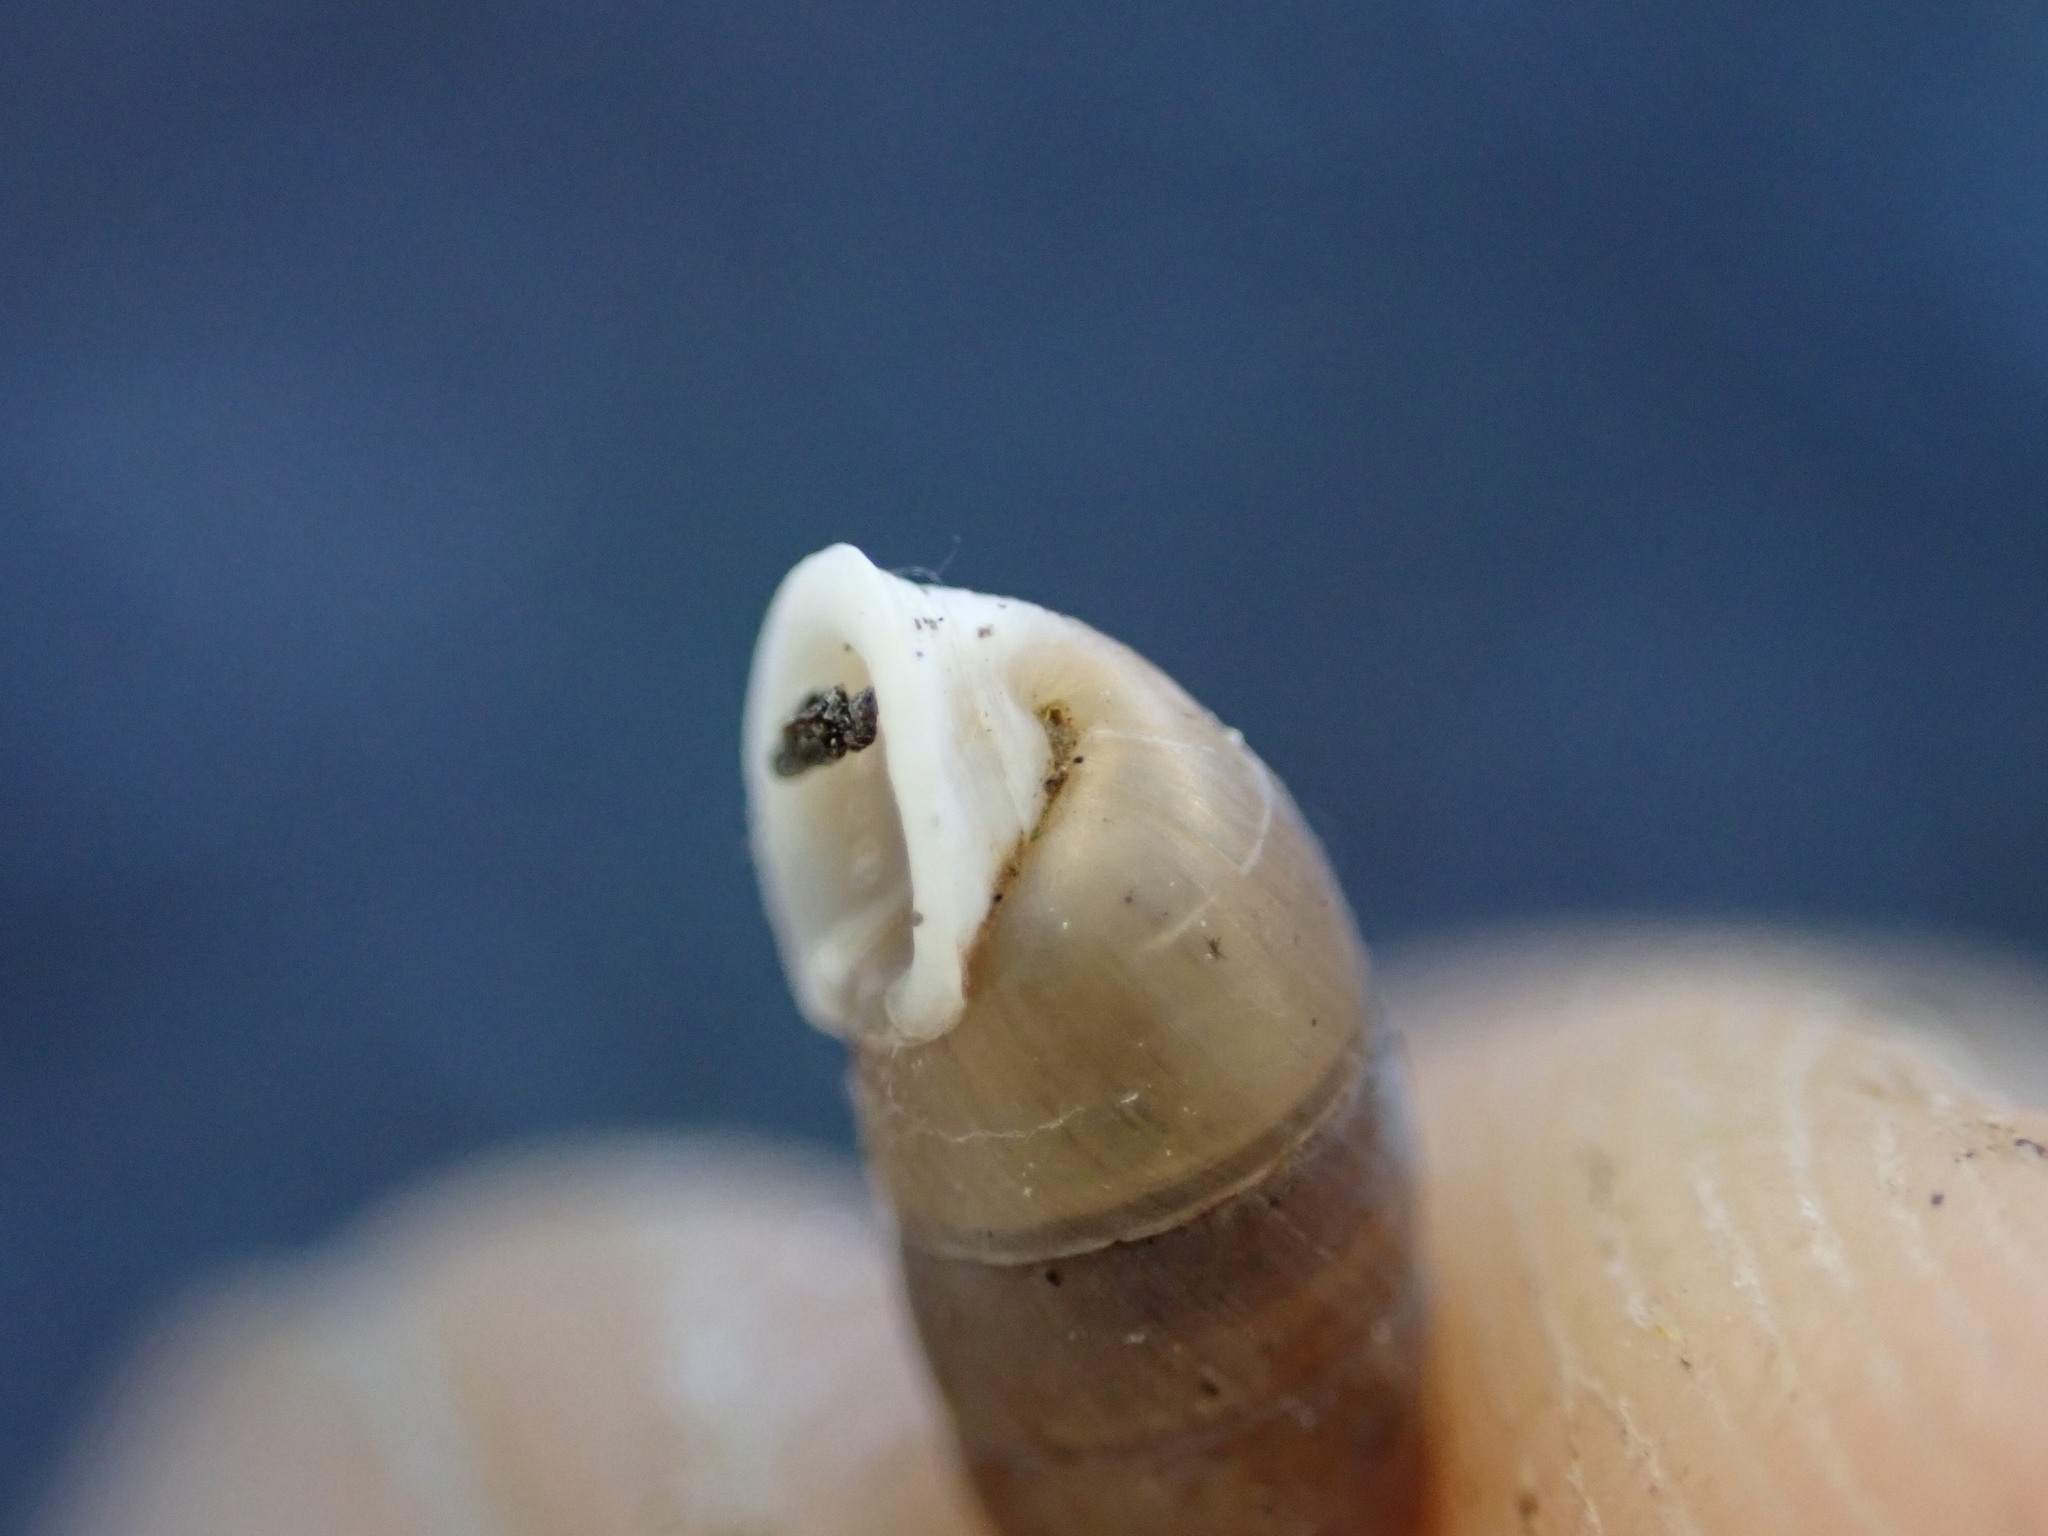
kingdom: Animalia
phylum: Mollusca
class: Gastropoda
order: Stylommatophora
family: Chondrinidae
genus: Granaria
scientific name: Granaria variabilis
